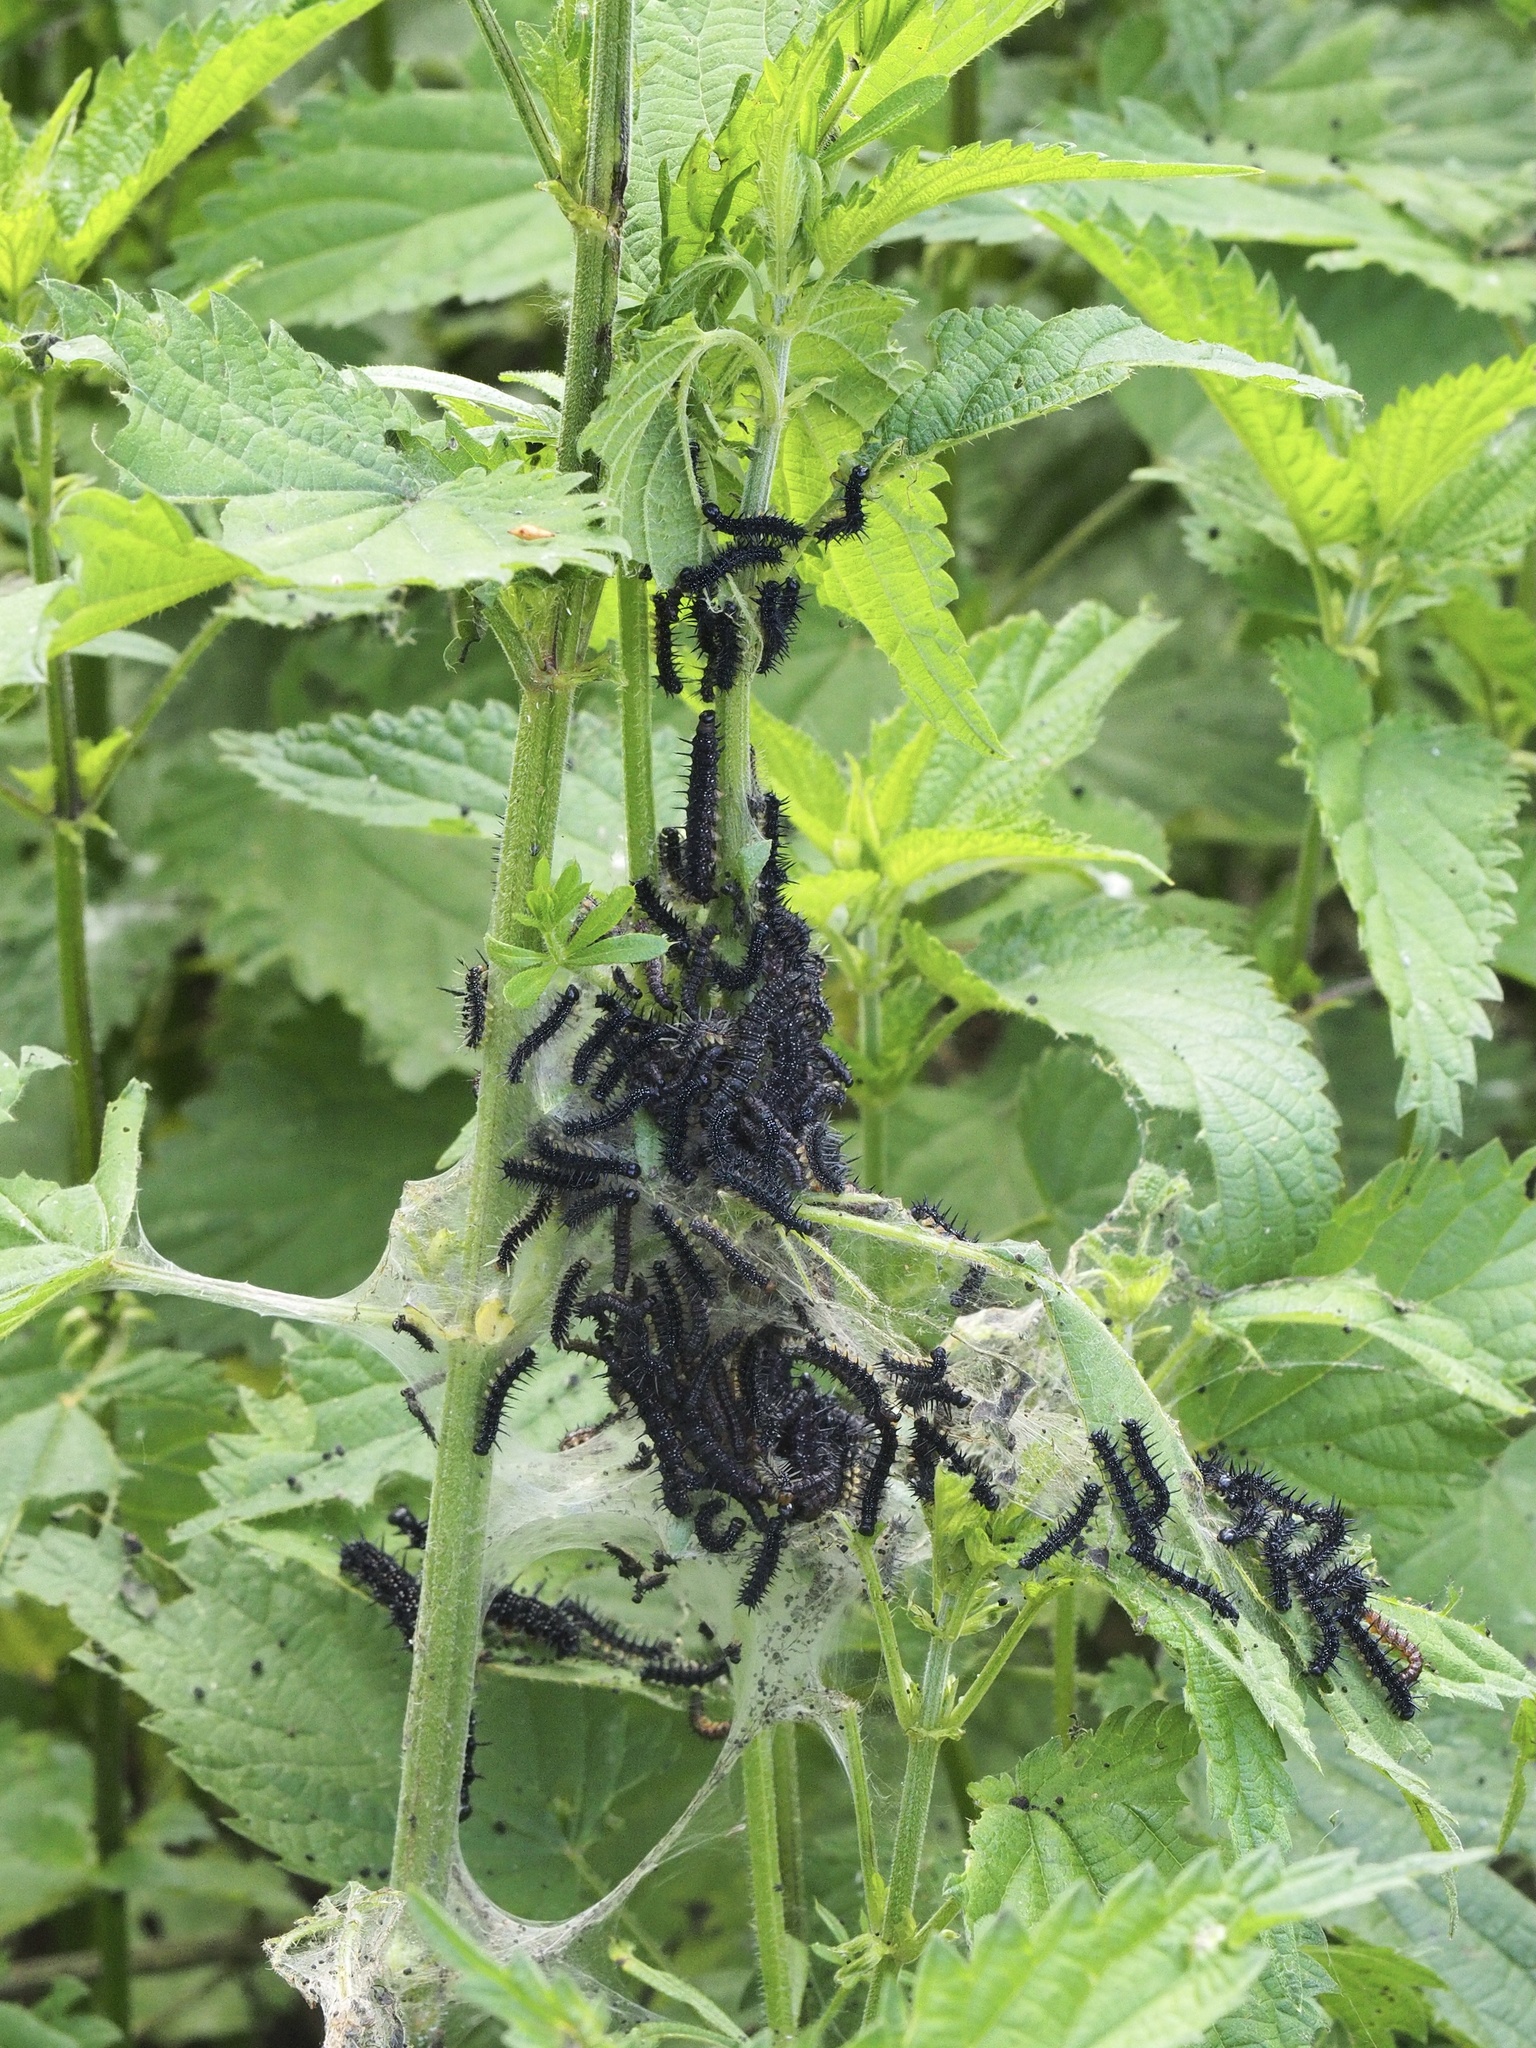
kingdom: Animalia
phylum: Arthropoda
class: Insecta
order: Lepidoptera
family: Nymphalidae
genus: Aglais
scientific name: Aglais io
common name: Peacock
